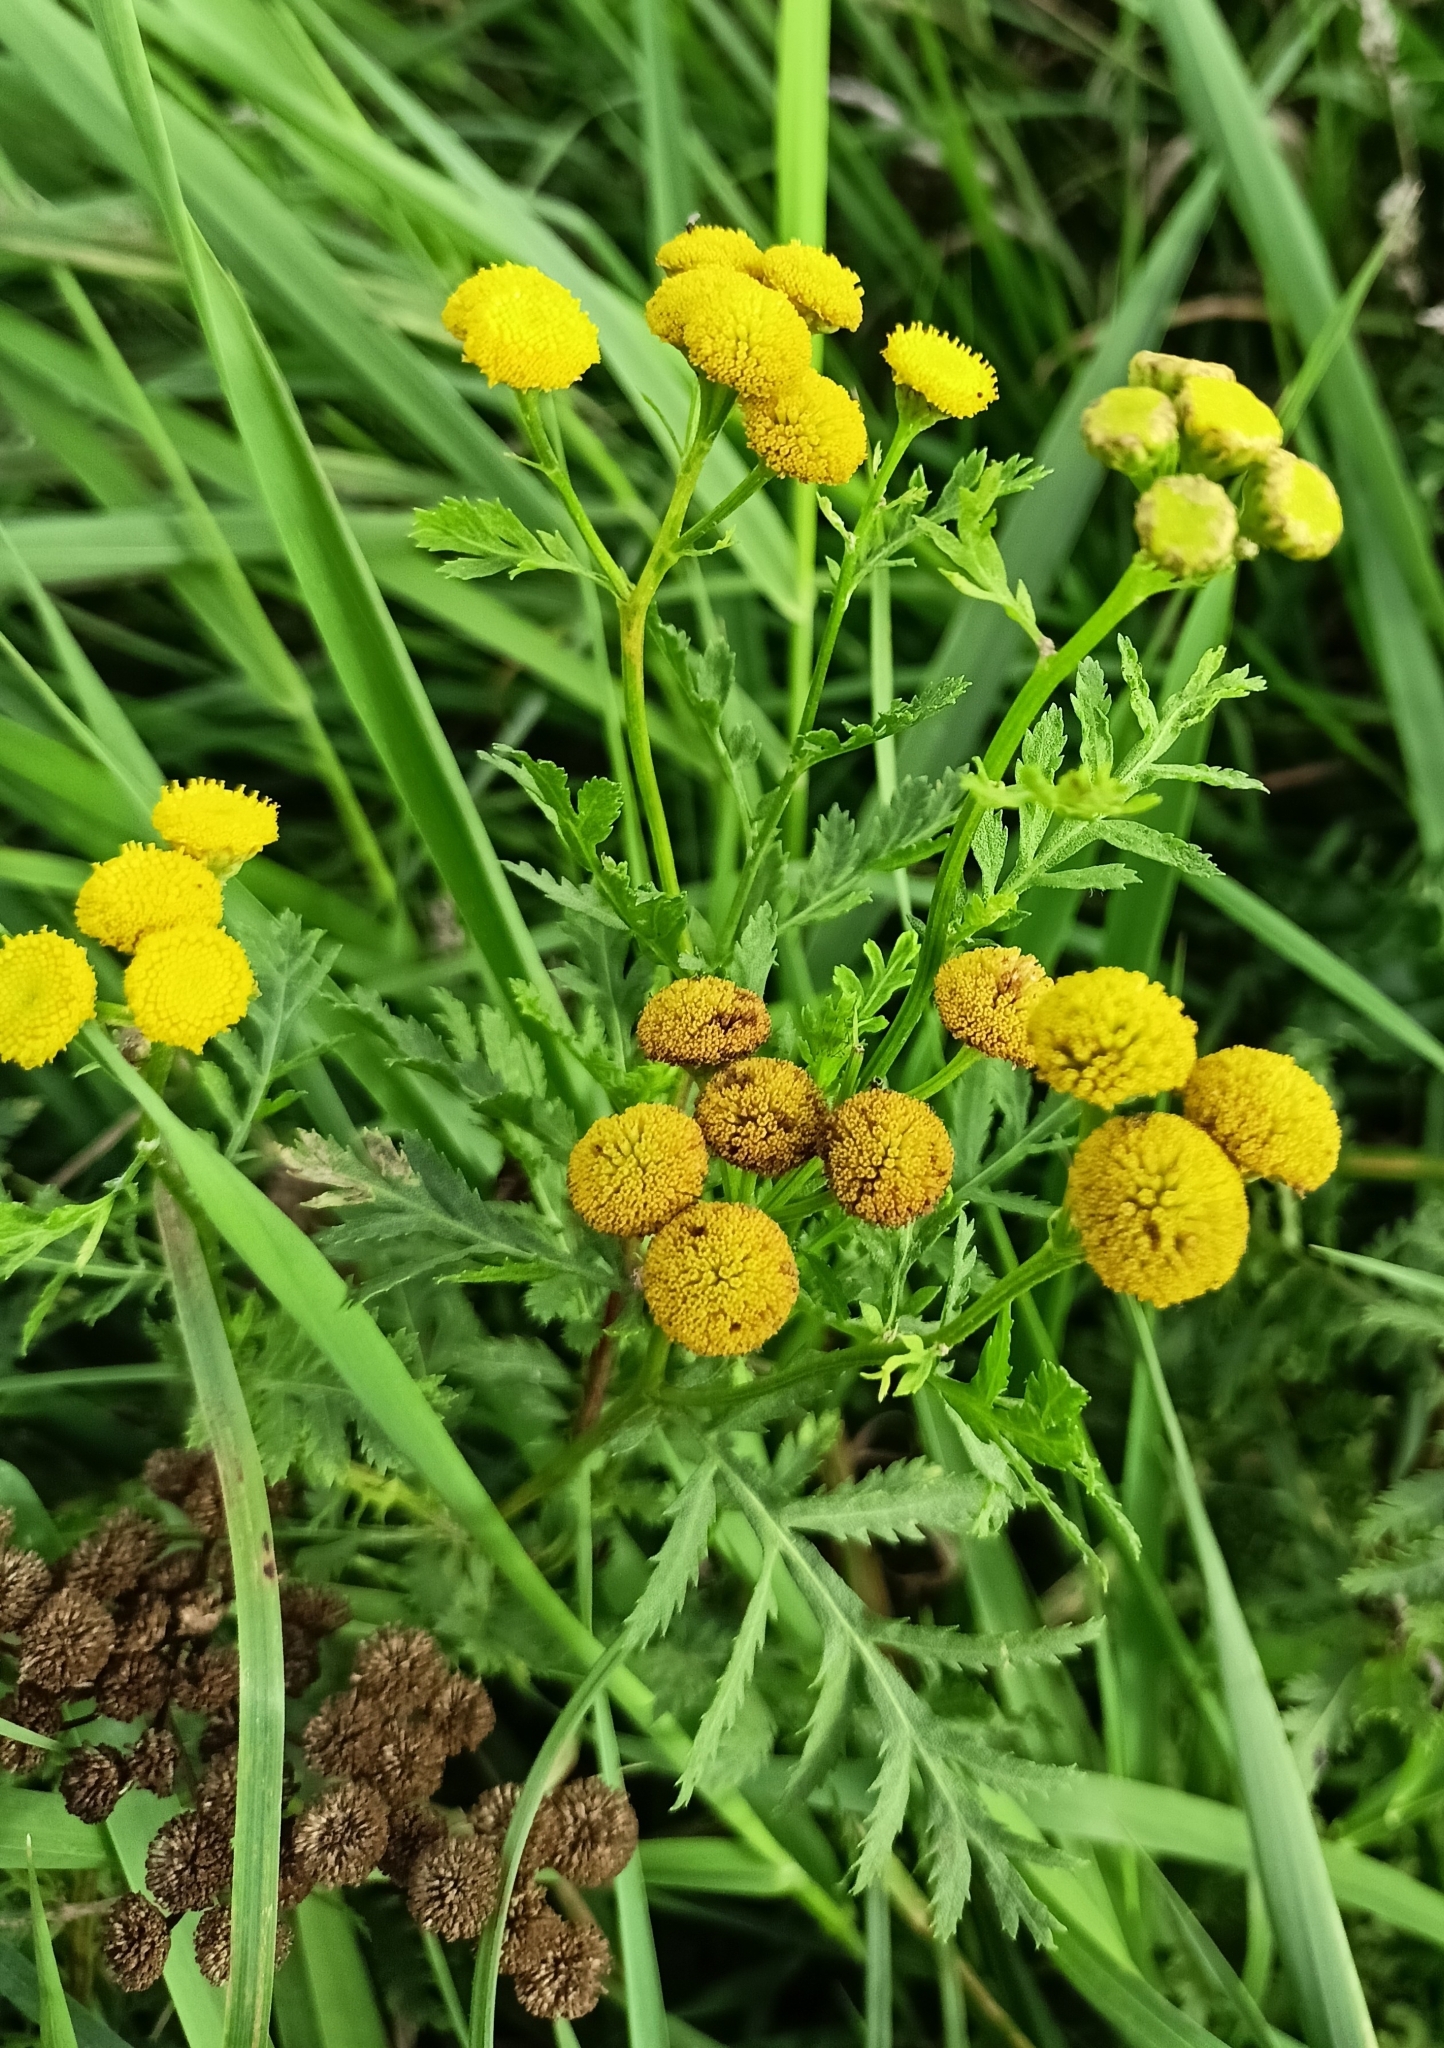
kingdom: Plantae
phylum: Tracheophyta
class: Magnoliopsida
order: Asterales
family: Asteraceae
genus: Tanacetum
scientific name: Tanacetum vulgare
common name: Common tansy
